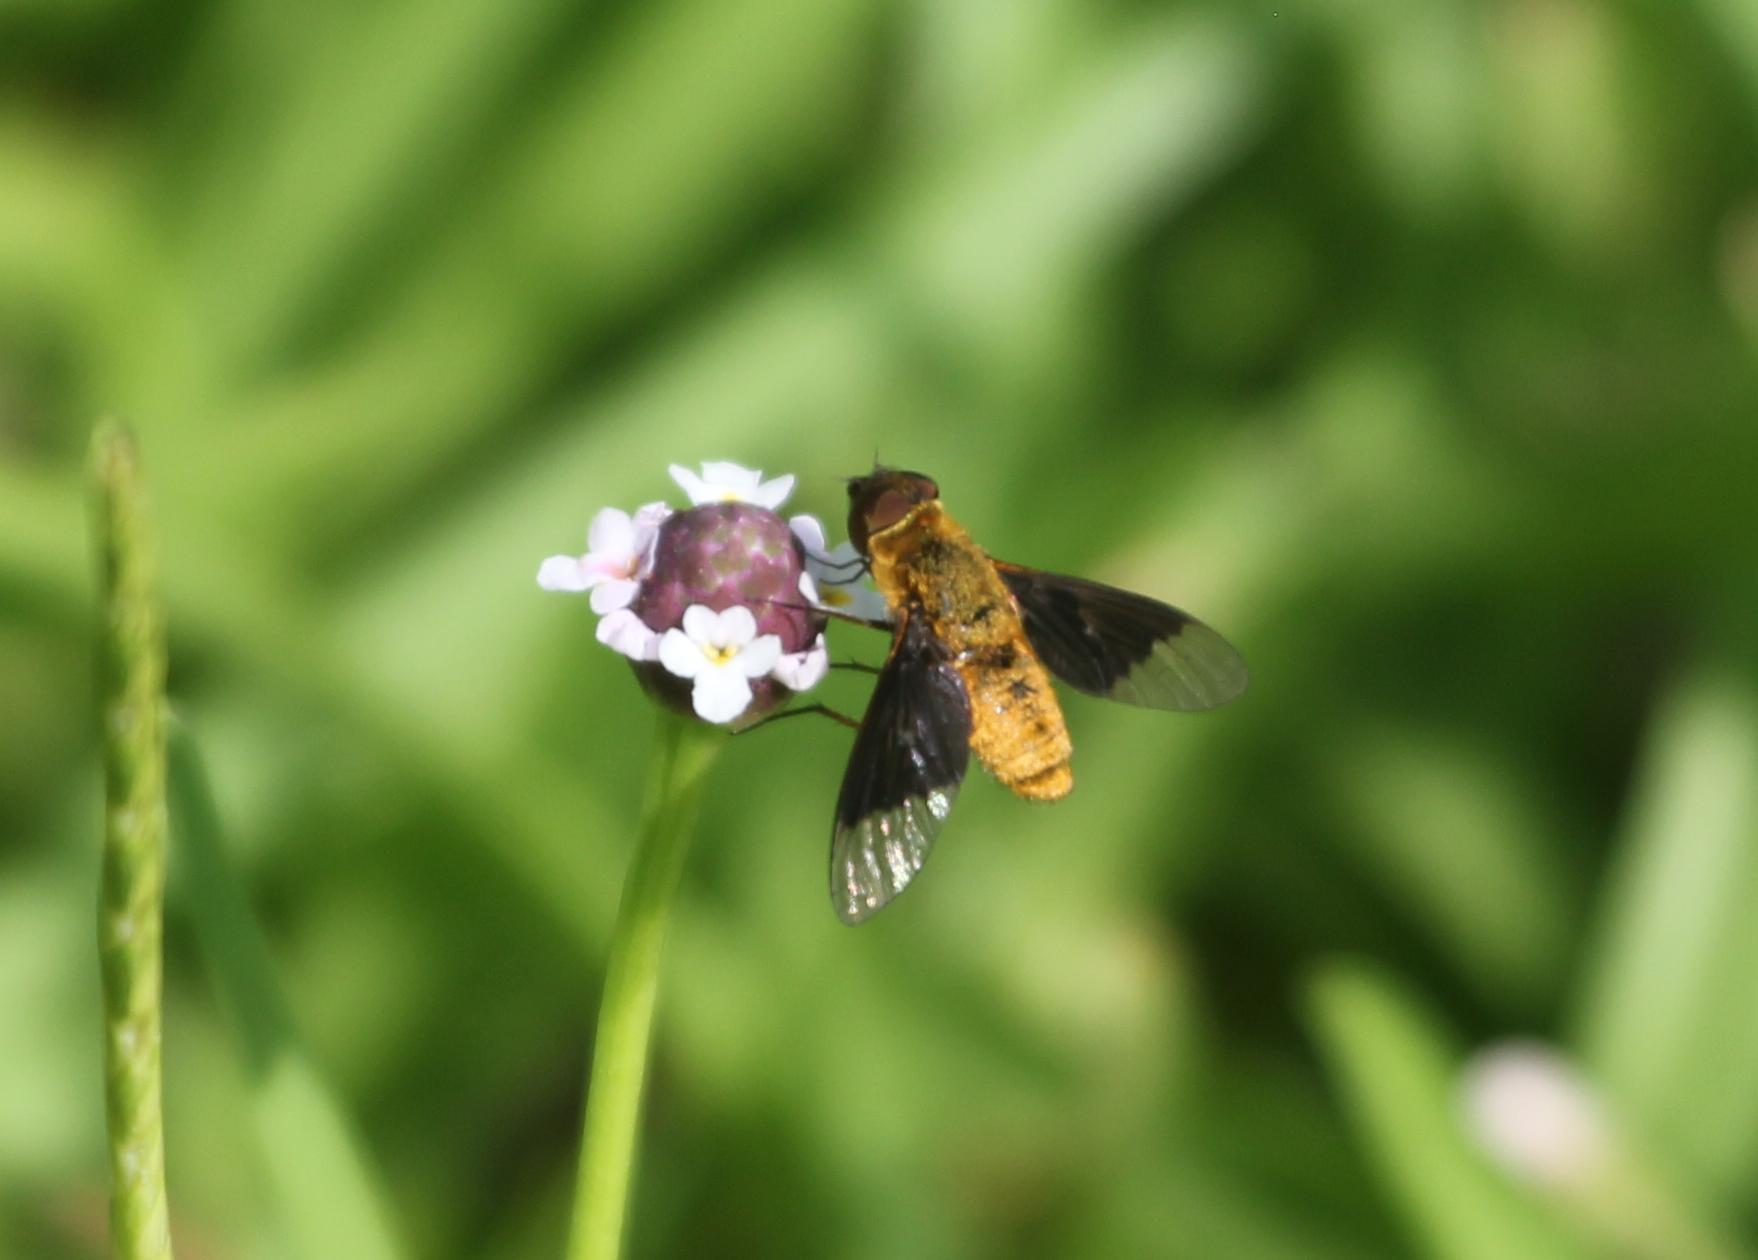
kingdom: Animalia
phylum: Arthropoda
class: Insecta
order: Diptera
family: Bombyliidae
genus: Chrysanthrax
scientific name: Chrysanthrax cypris
